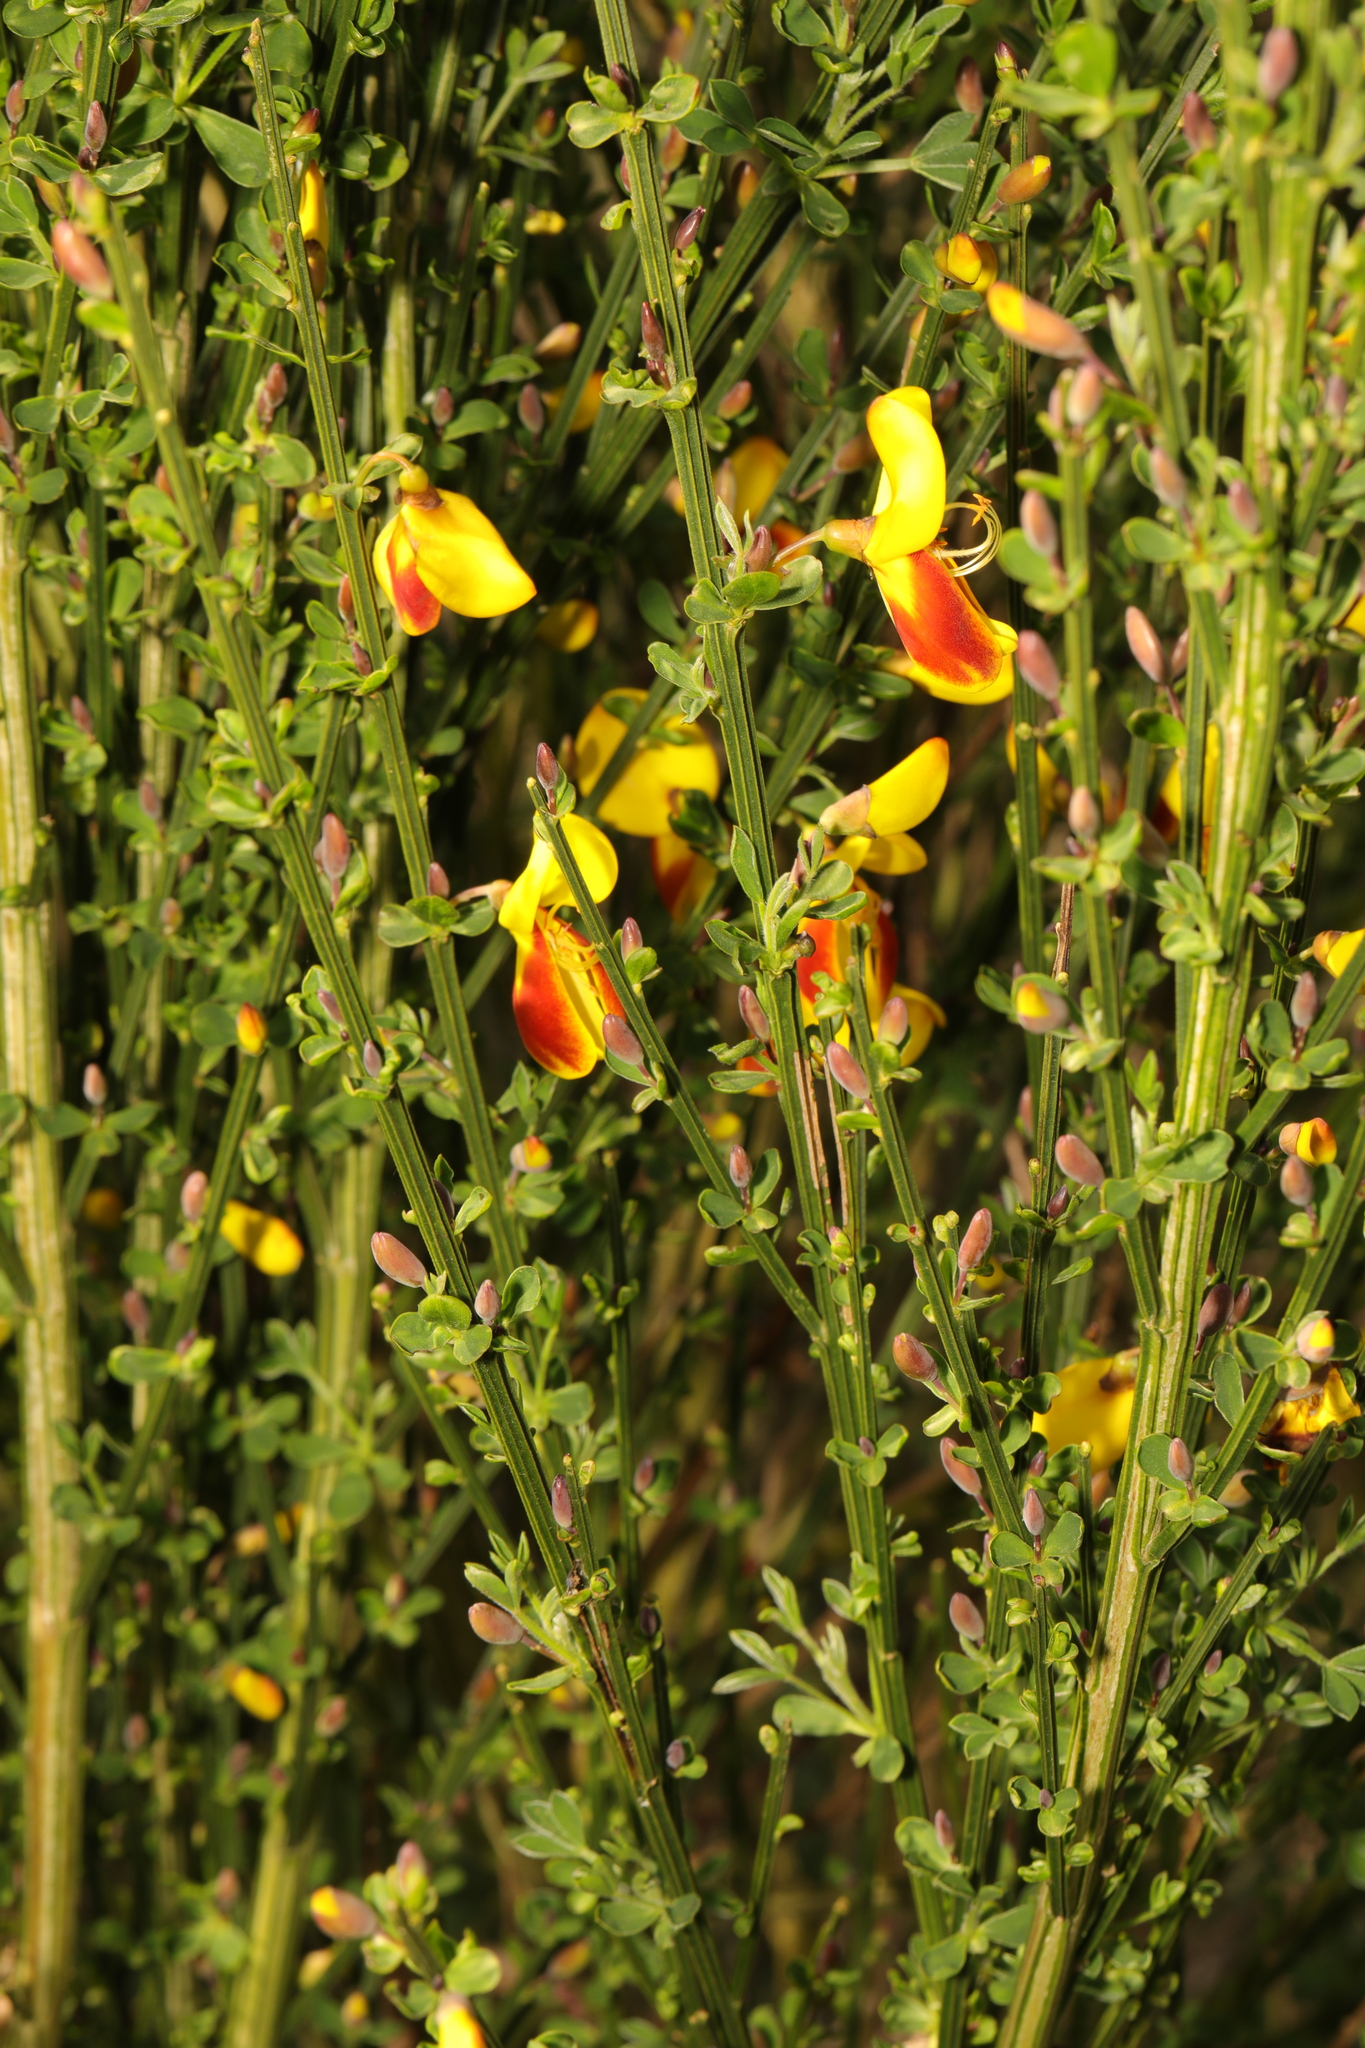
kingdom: Plantae
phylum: Tracheophyta
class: Magnoliopsida
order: Fabales
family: Fabaceae
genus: Cytisus
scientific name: Cytisus scoparius
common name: Scotch broom
